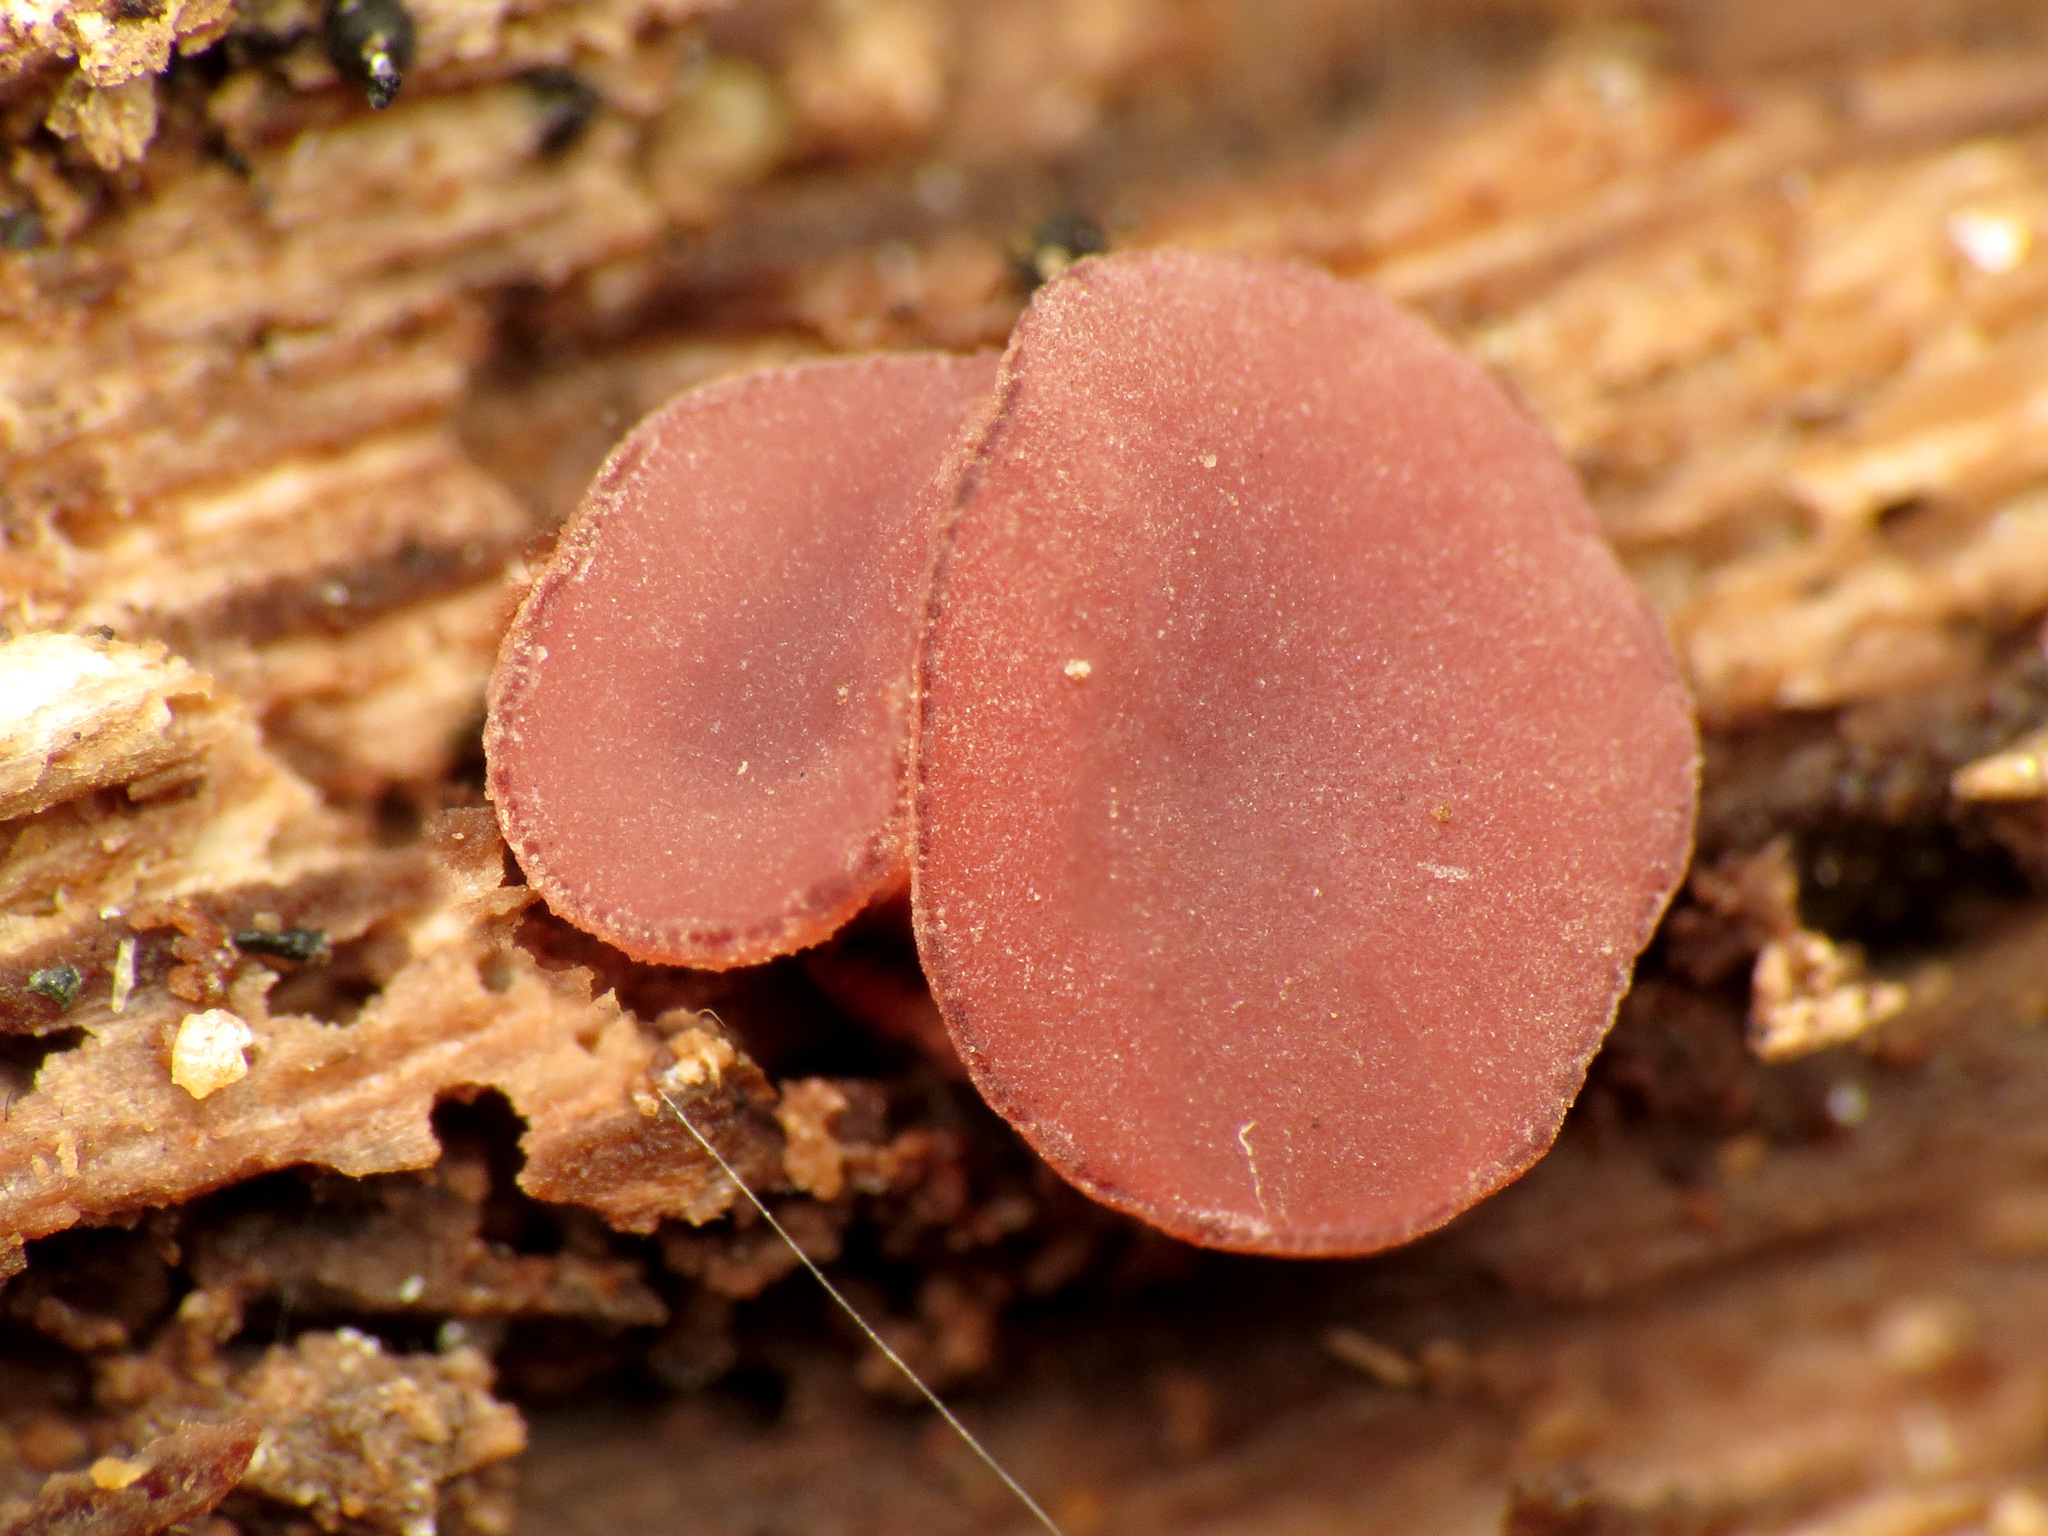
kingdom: Fungi
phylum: Ascomycota
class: Leotiomycetes
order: Helotiales
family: Gelatinodiscaceae
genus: Ascocoryne
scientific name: Ascocoryne sarcoides
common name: Purple jellydisc
